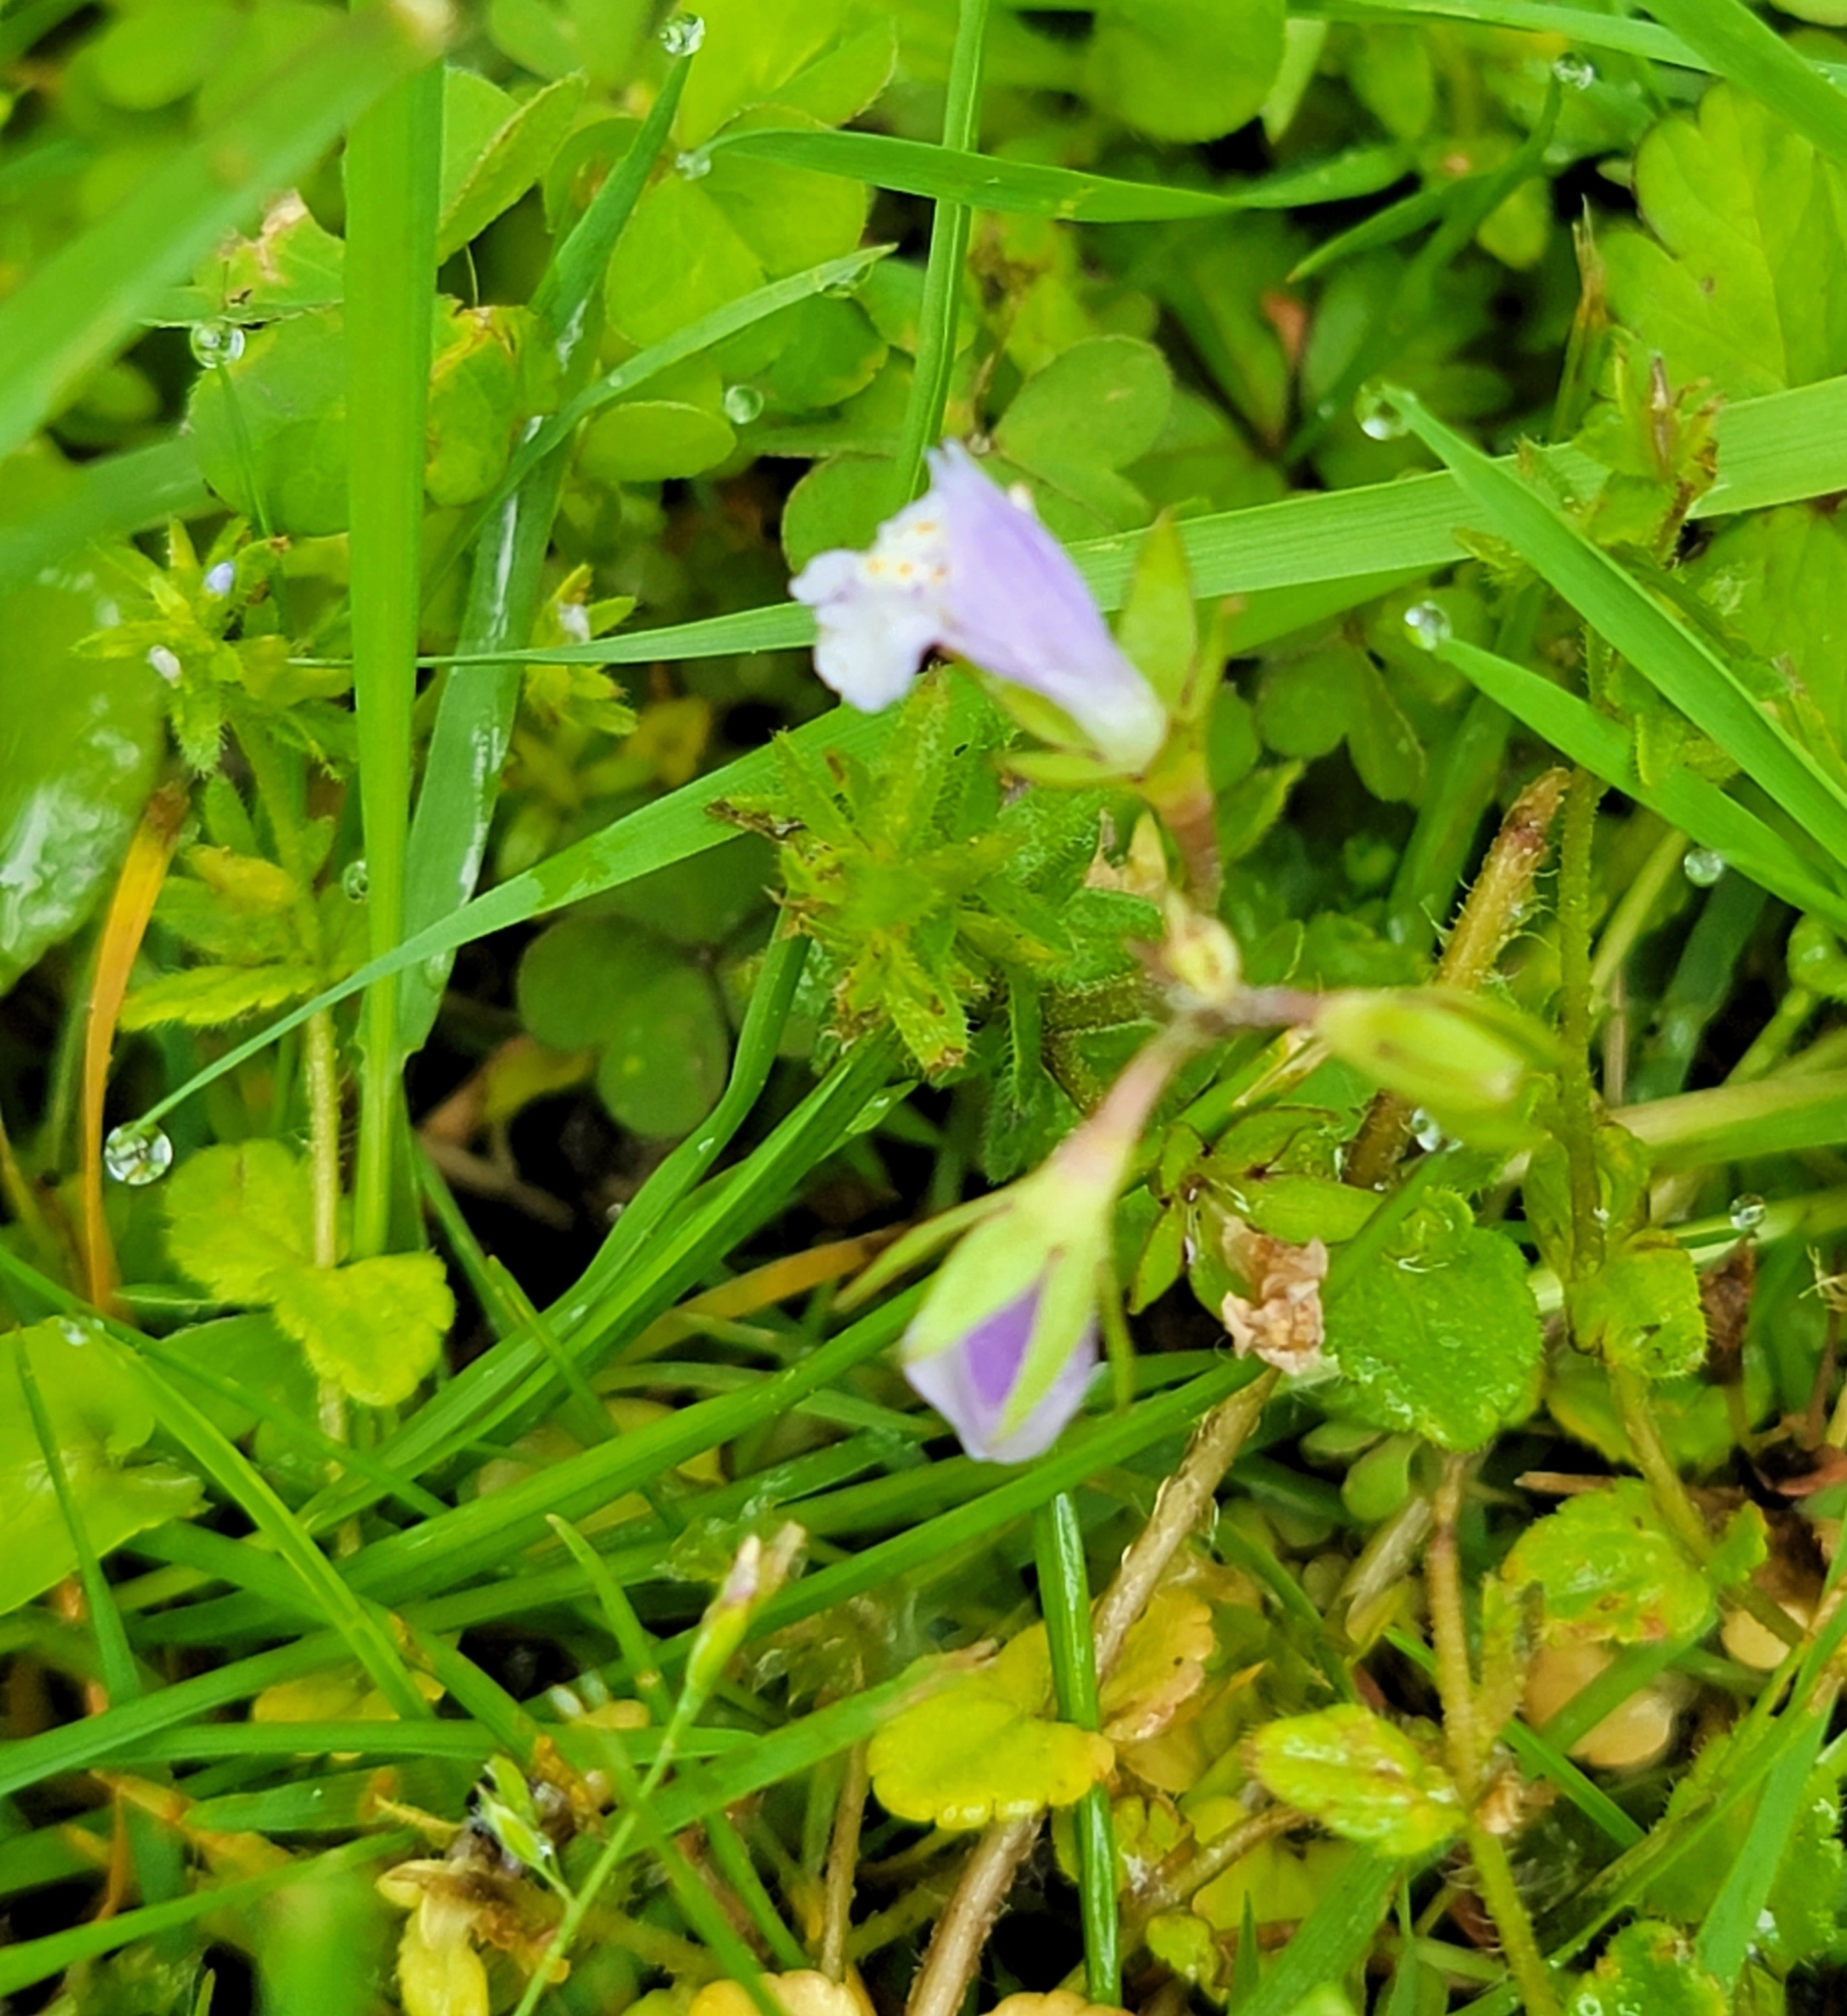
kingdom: Plantae
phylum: Tracheophyta
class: Magnoliopsida
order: Lamiales
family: Mazaceae
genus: Mazus
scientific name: Mazus pumilus
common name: Japanese mazus
